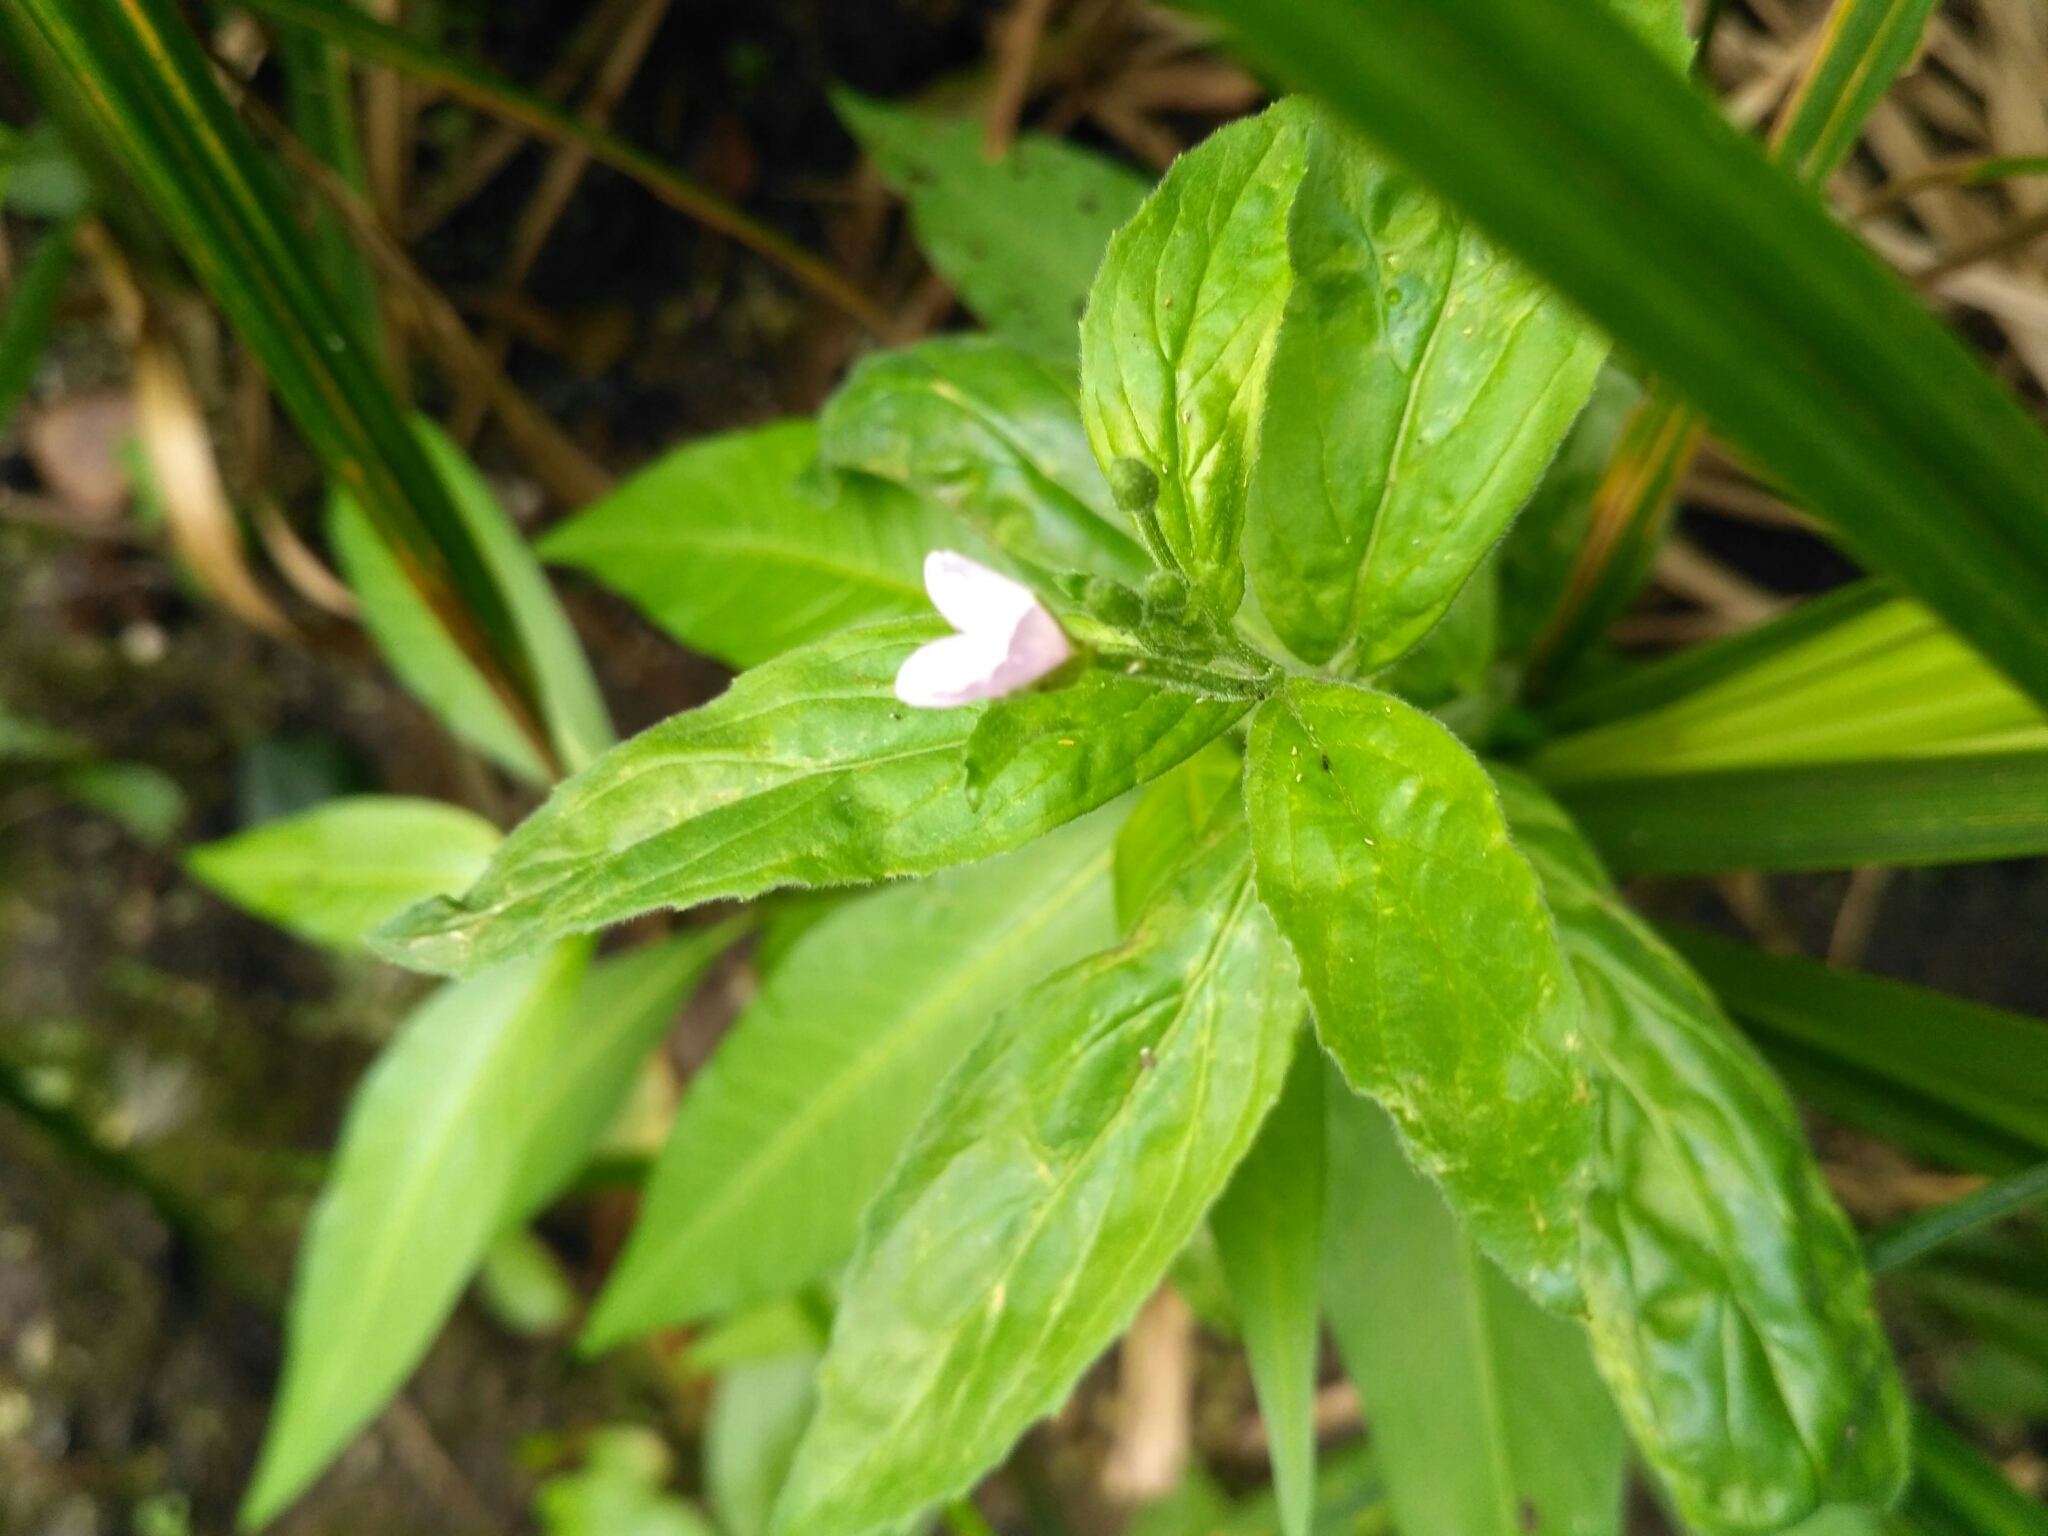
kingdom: Plantae
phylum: Tracheophyta
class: Magnoliopsida
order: Myrtales
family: Onagraceae
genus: Epilobium
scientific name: Epilobium montanum
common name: Broad-leaved willowherb
